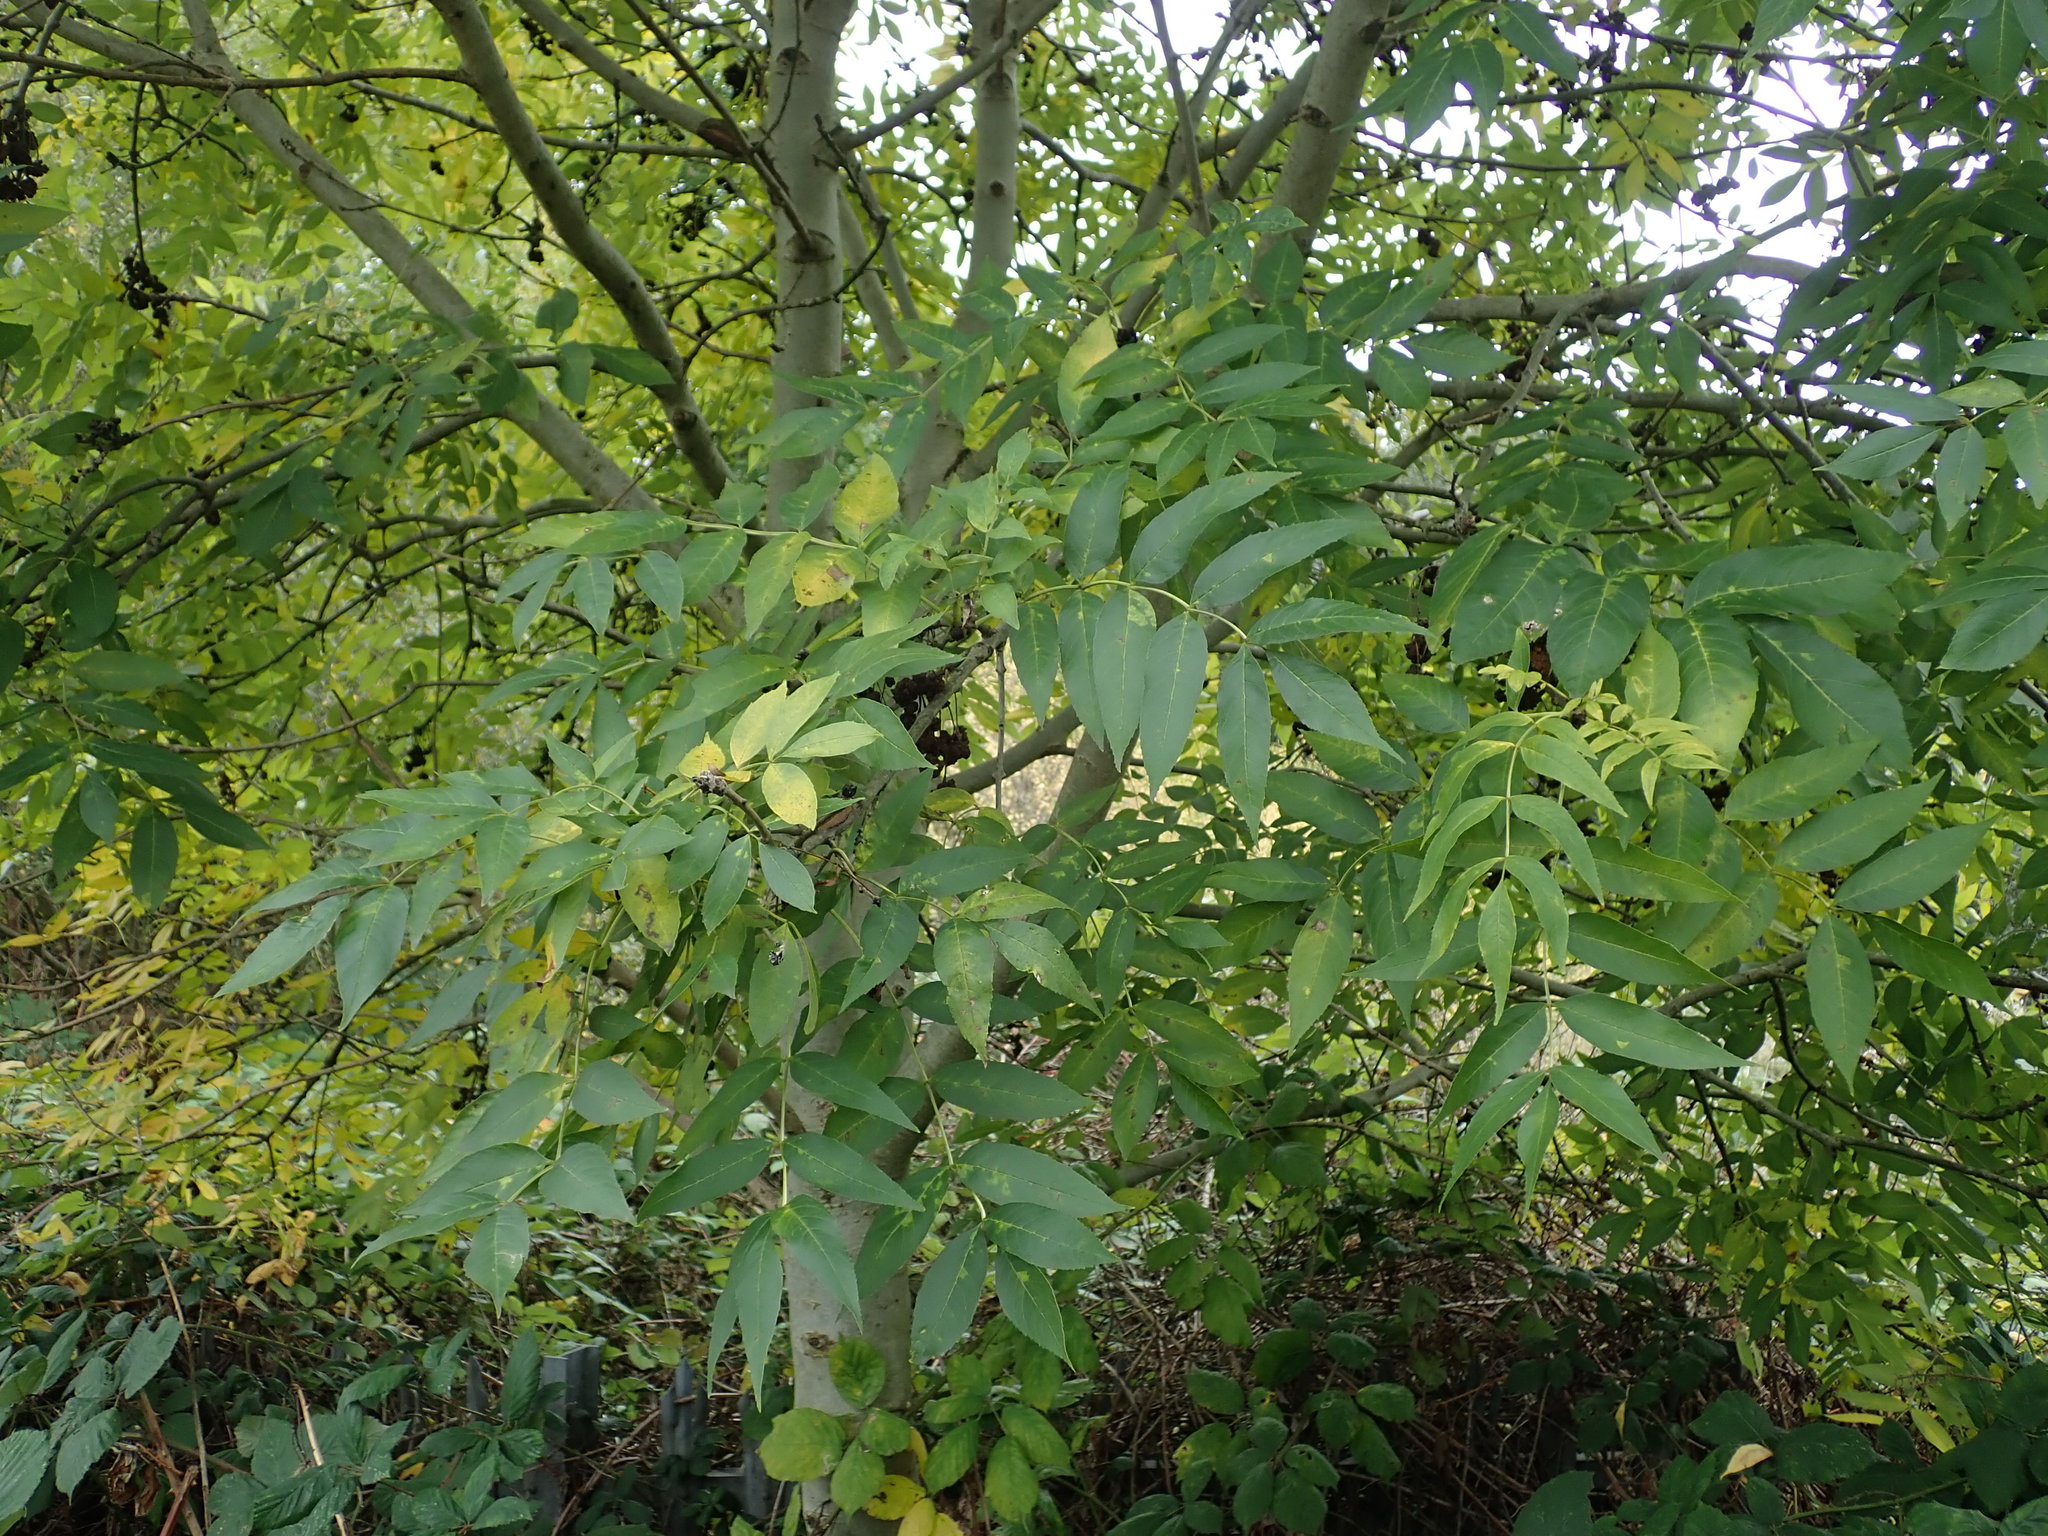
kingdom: Plantae
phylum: Tracheophyta
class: Magnoliopsida
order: Lamiales
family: Oleaceae
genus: Fraxinus
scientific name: Fraxinus excelsior
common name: European ash
